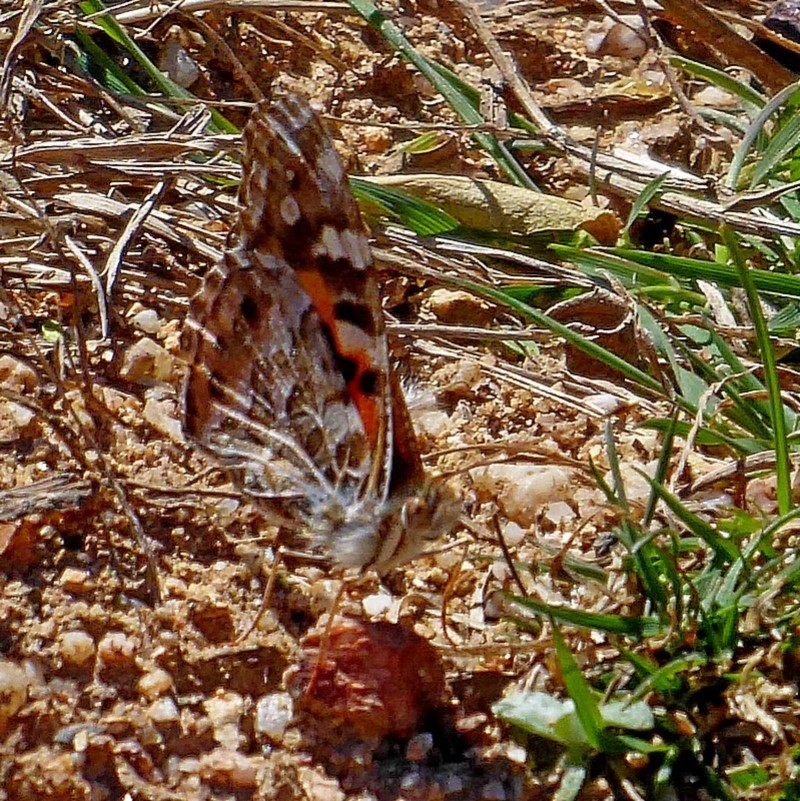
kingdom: Animalia
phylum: Arthropoda
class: Insecta
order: Lepidoptera
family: Nymphalidae
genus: Vanessa
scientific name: Vanessa kershawi
